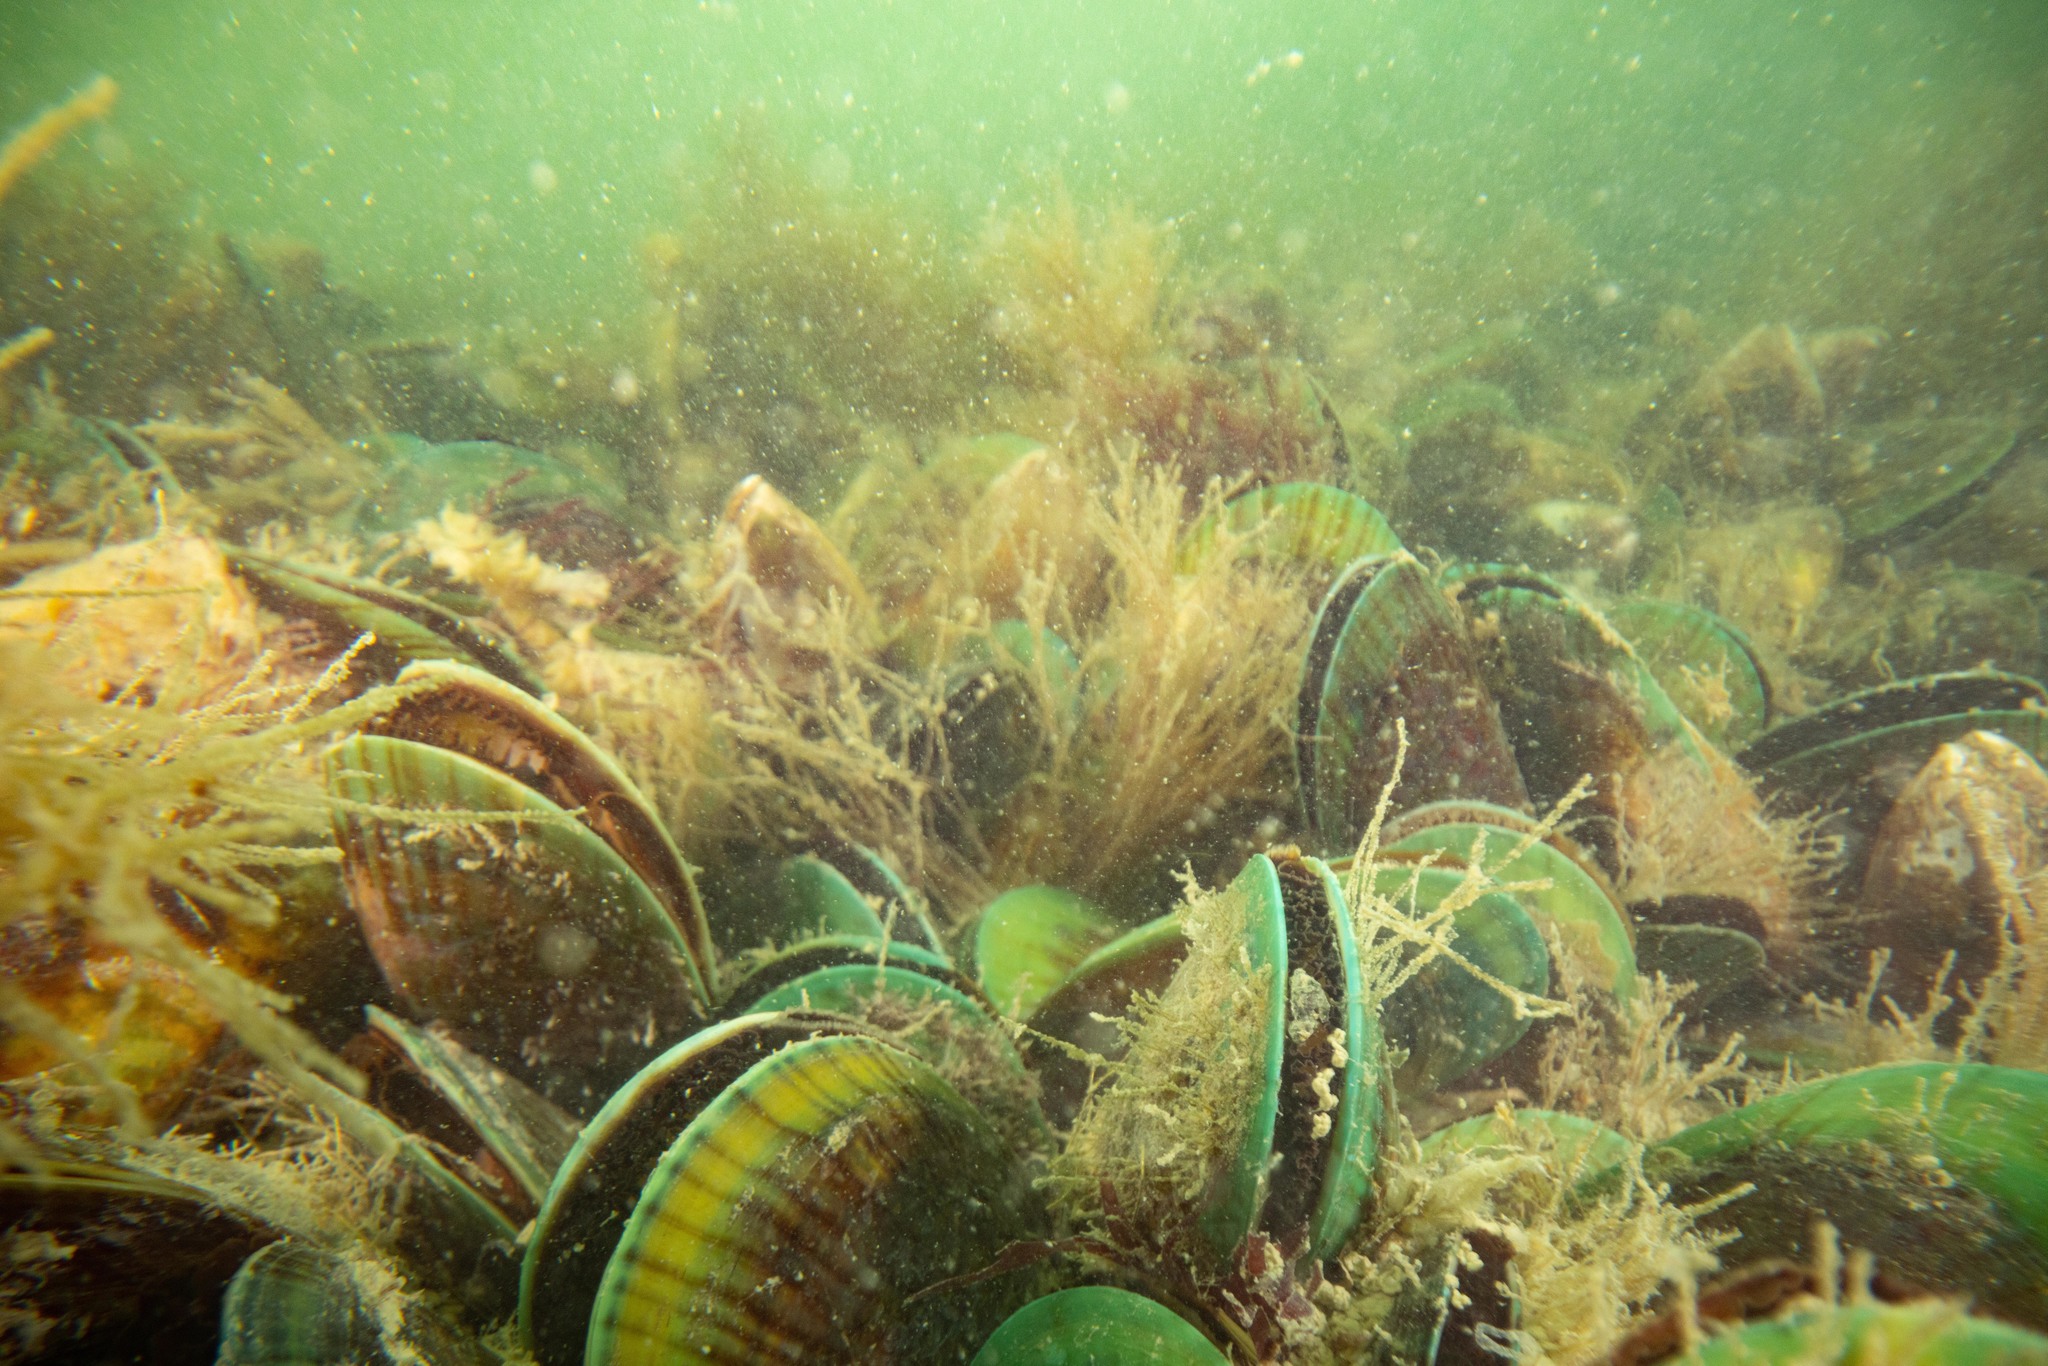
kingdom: Animalia
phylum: Mollusca
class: Bivalvia
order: Mytilida
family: Mytilidae
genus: Perna
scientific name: Perna canaliculus
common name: New zealand greenshelltm
